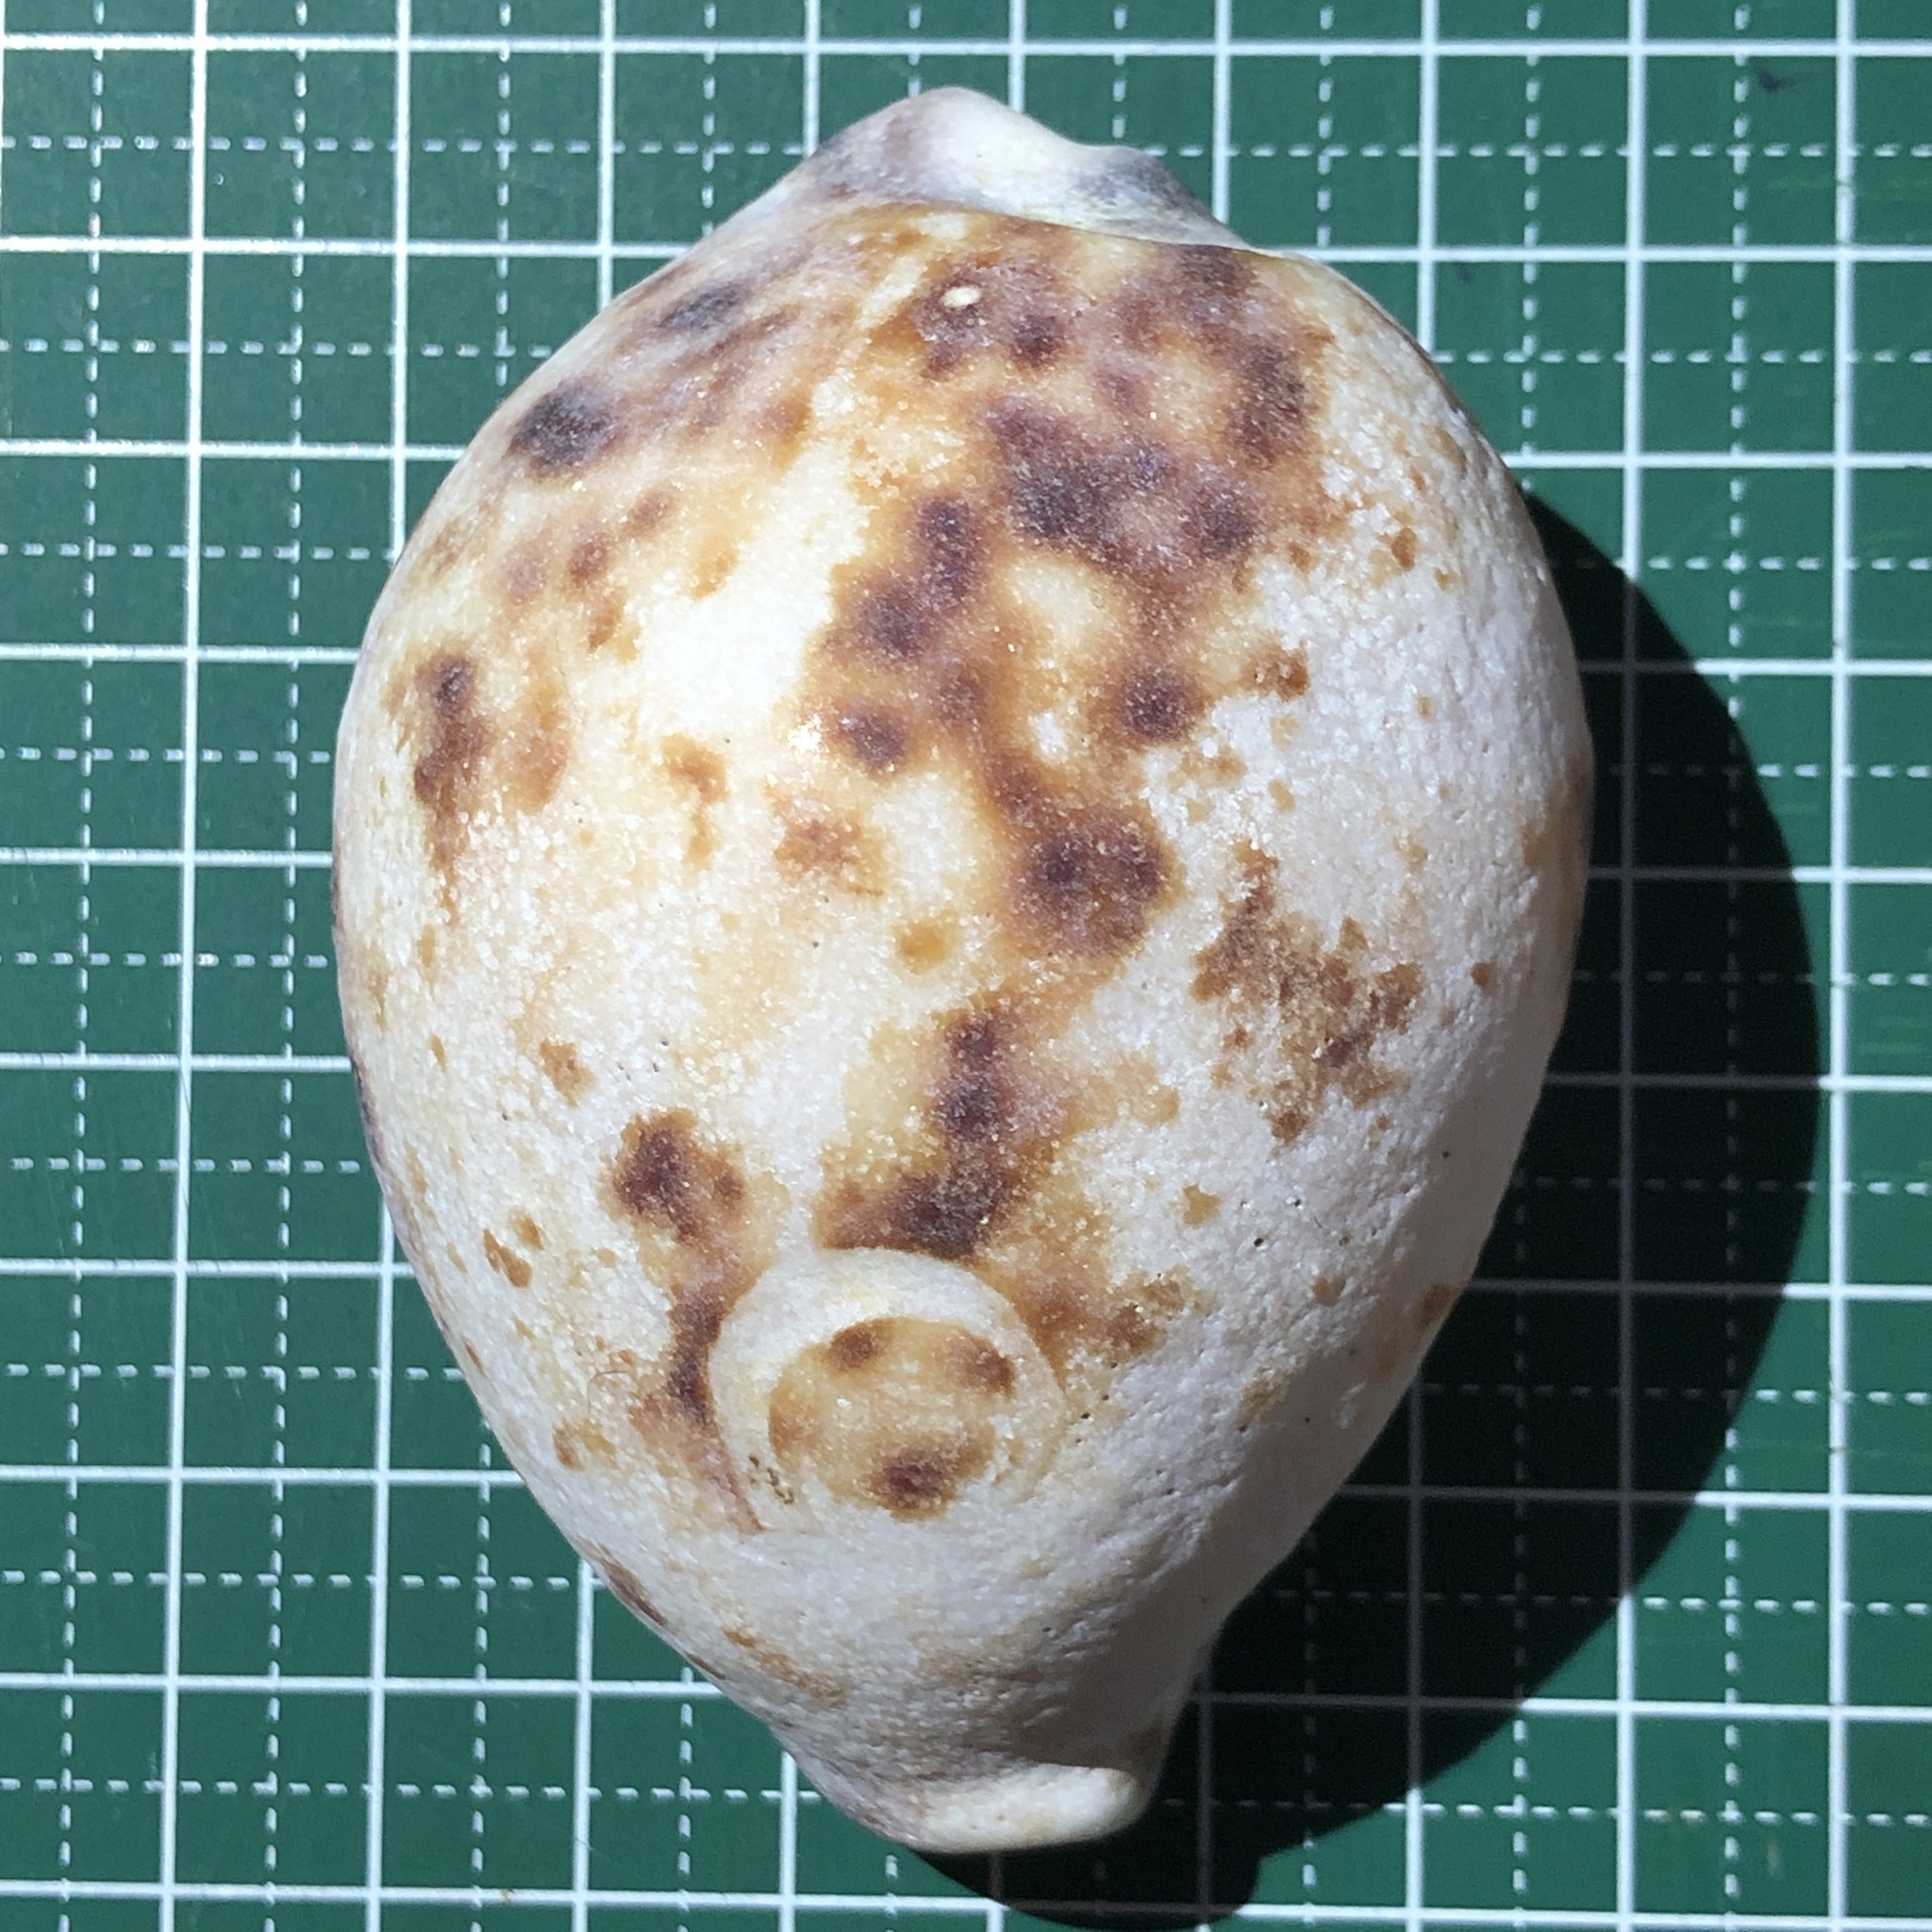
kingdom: Animalia
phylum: Mollusca
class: Gastropoda
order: Littorinimorpha
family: Cypraeidae
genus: Cypraea
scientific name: Cypraea tigris
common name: Tiger cowrie
